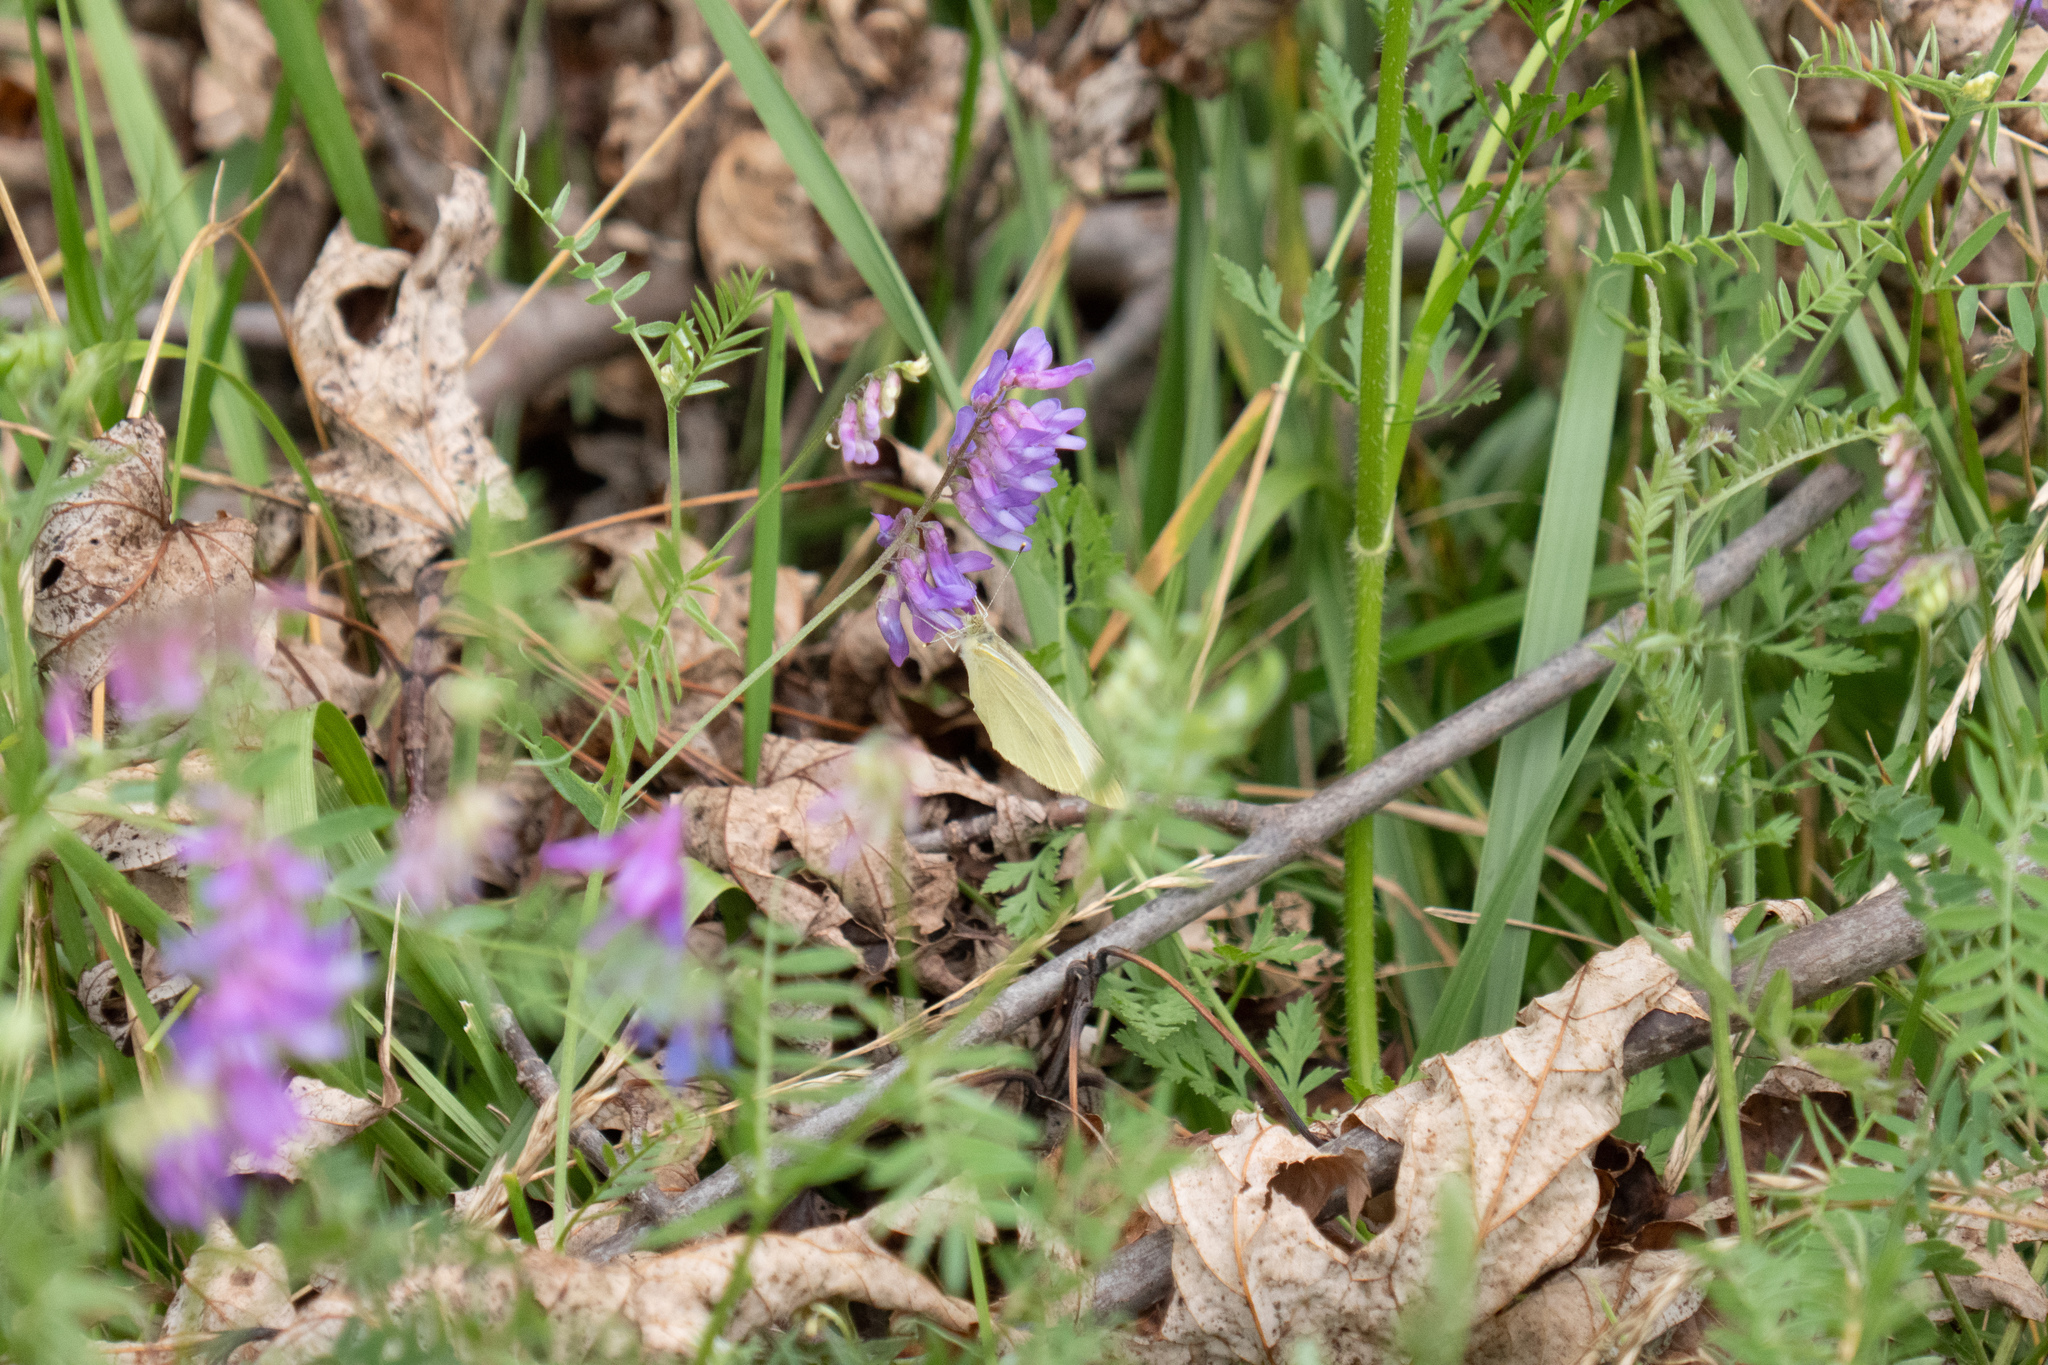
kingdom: Plantae
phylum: Tracheophyta
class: Magnoliopsida
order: Fabales
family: Fabaceae
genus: Vicia
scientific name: Vicia cracca
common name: Bird vetch
